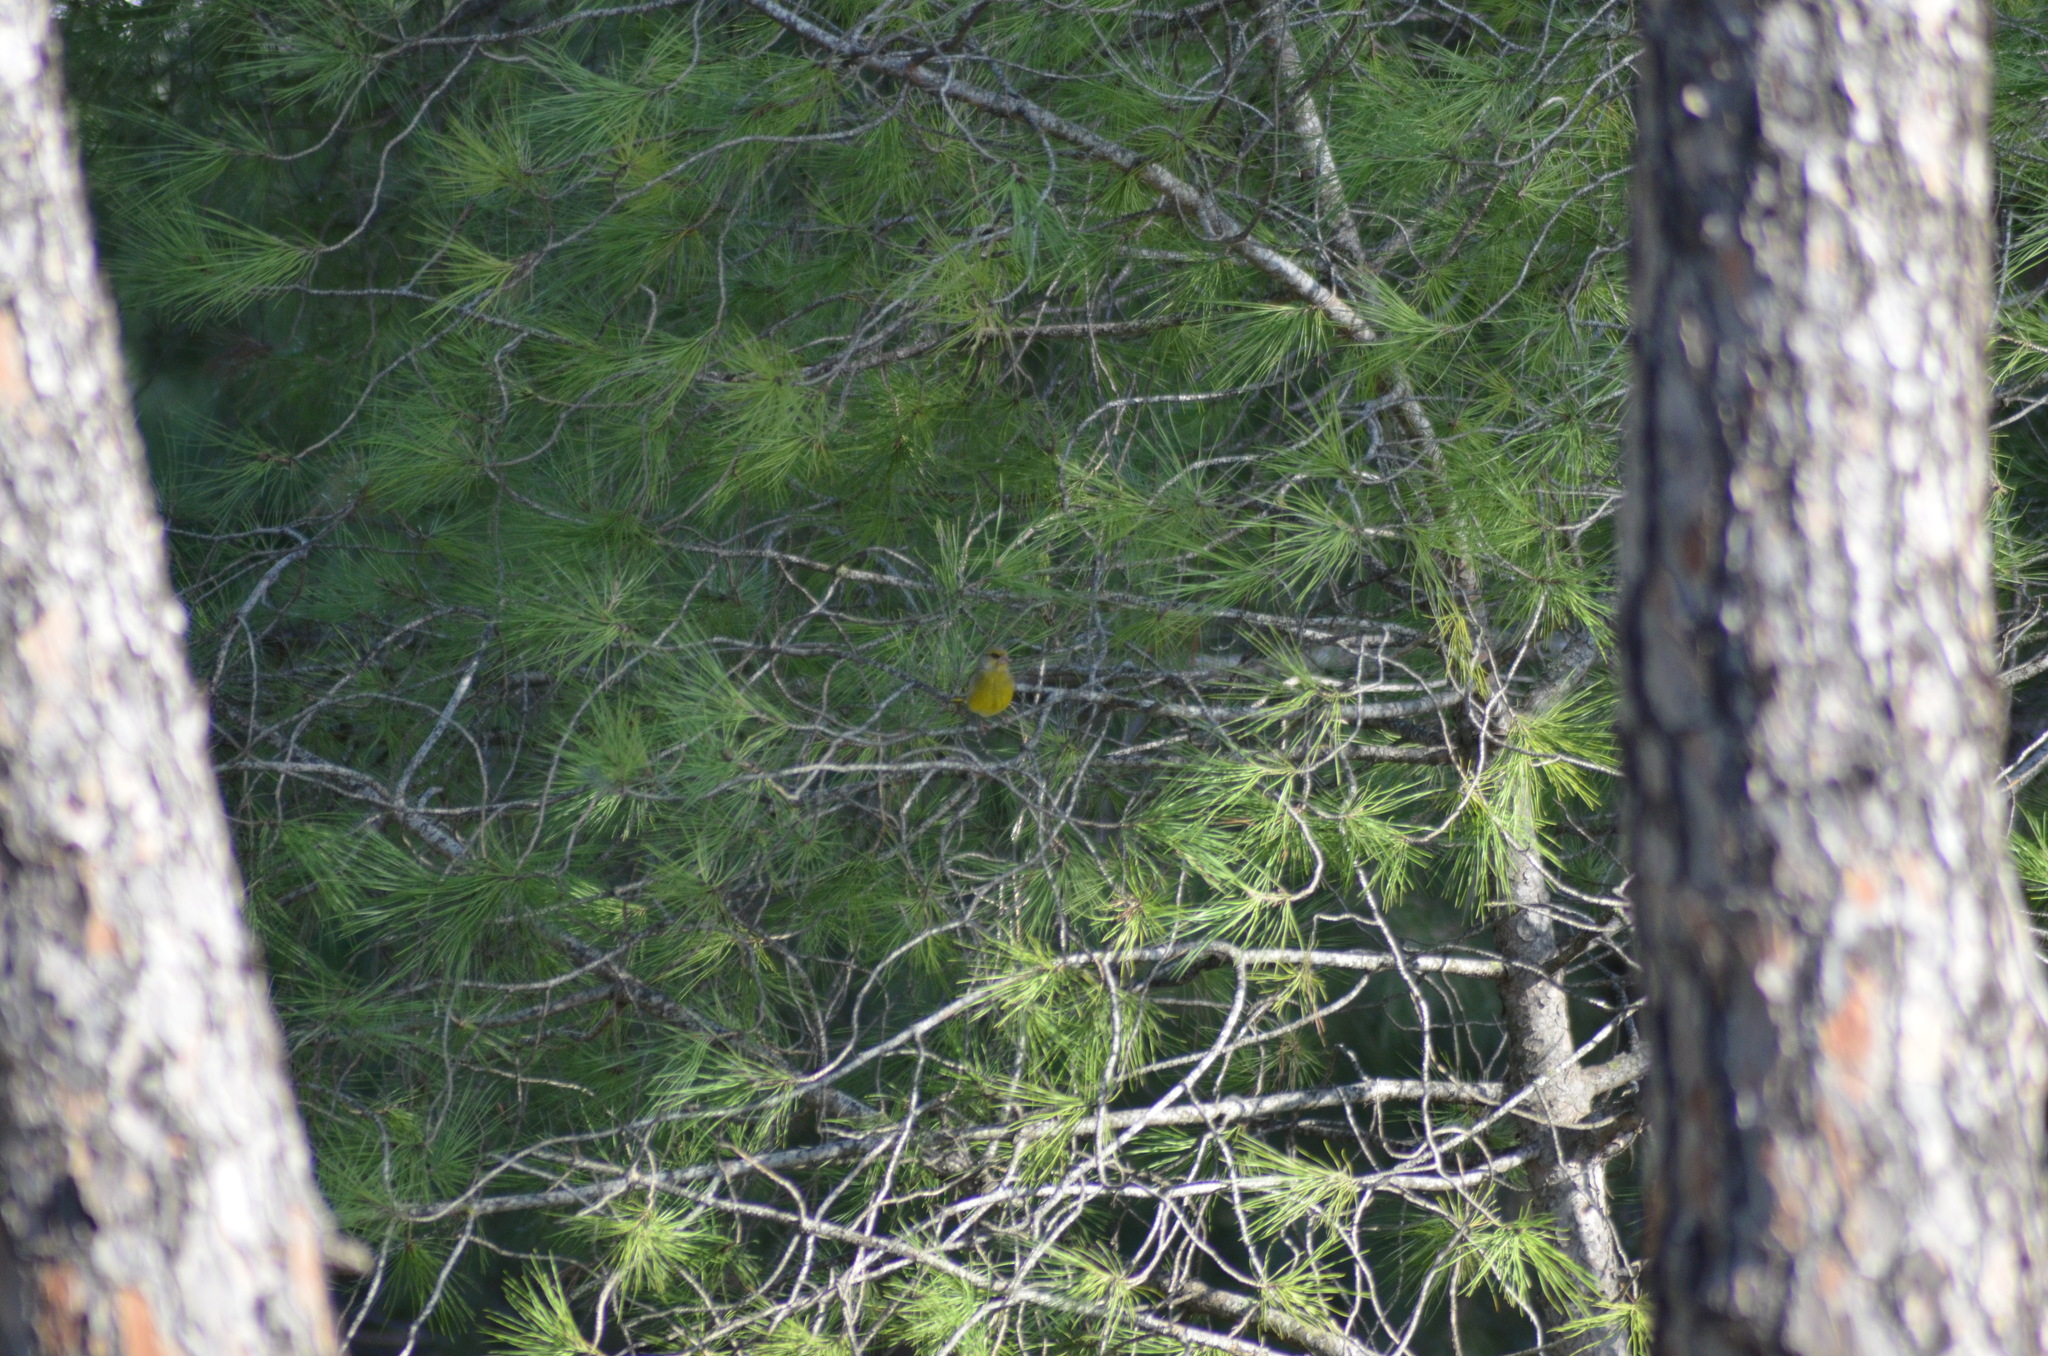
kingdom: Plantae
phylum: Tracheophyta
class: Liliopsida
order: Poales
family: Poaceae
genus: Chloris
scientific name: Chloris chloris
